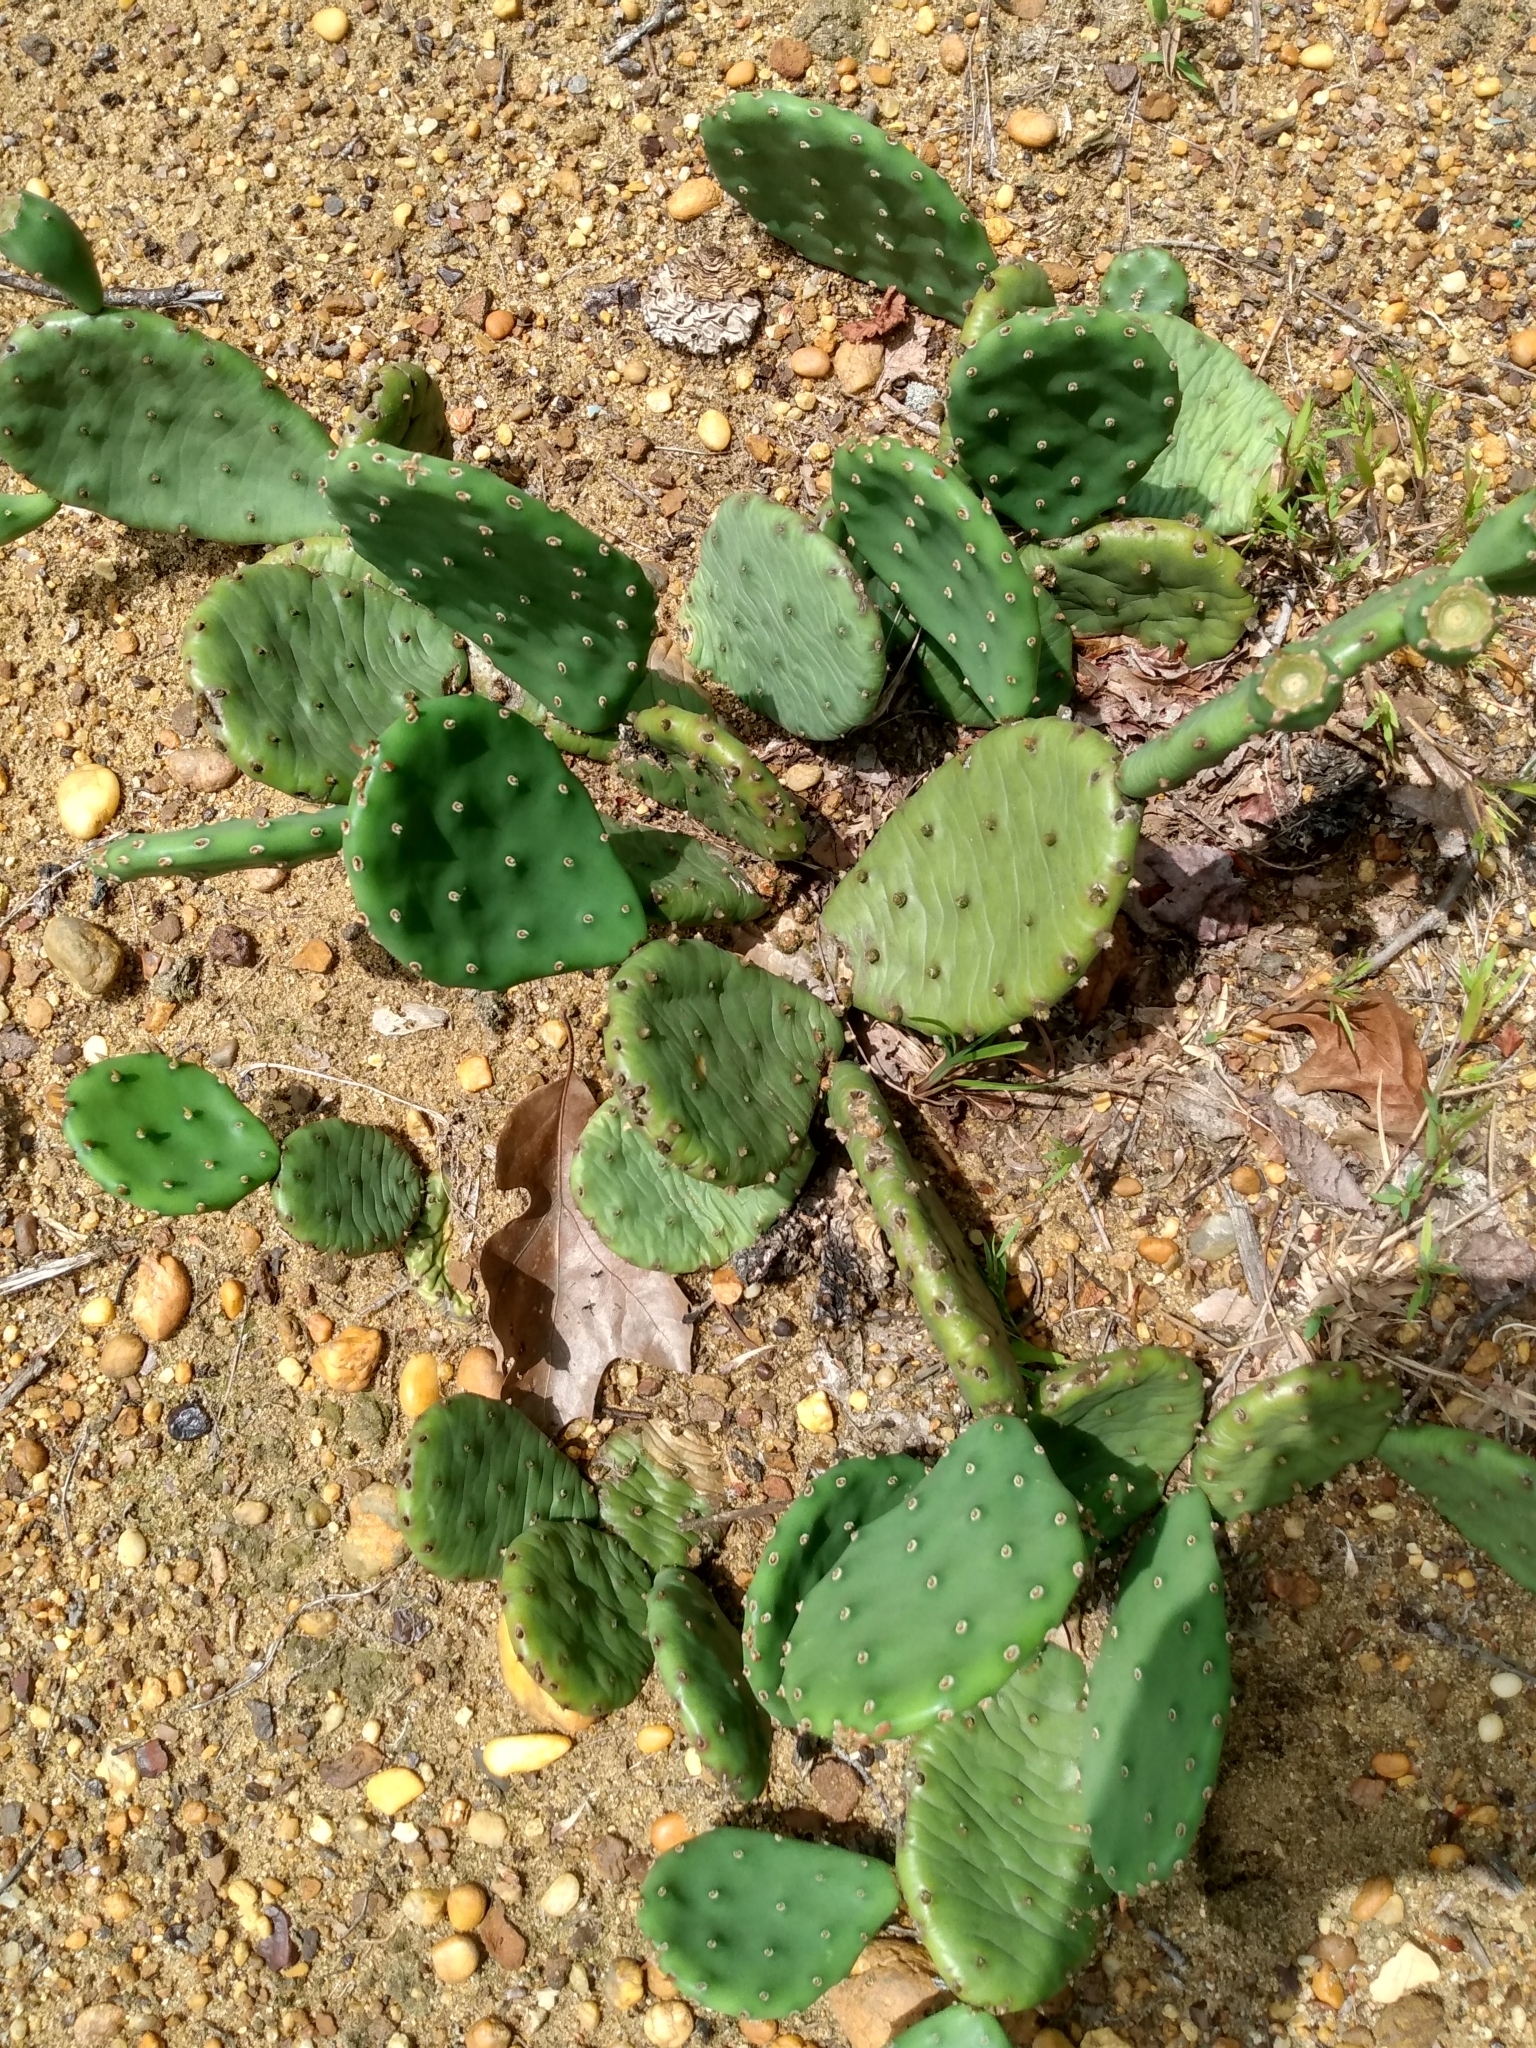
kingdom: Plantae
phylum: Tracheophyta
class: Magnoliopsida
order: Caryophyllales
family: Cactaceae
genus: Opuntia
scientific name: Opuntia humifusa
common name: Eastern prickly-pear
